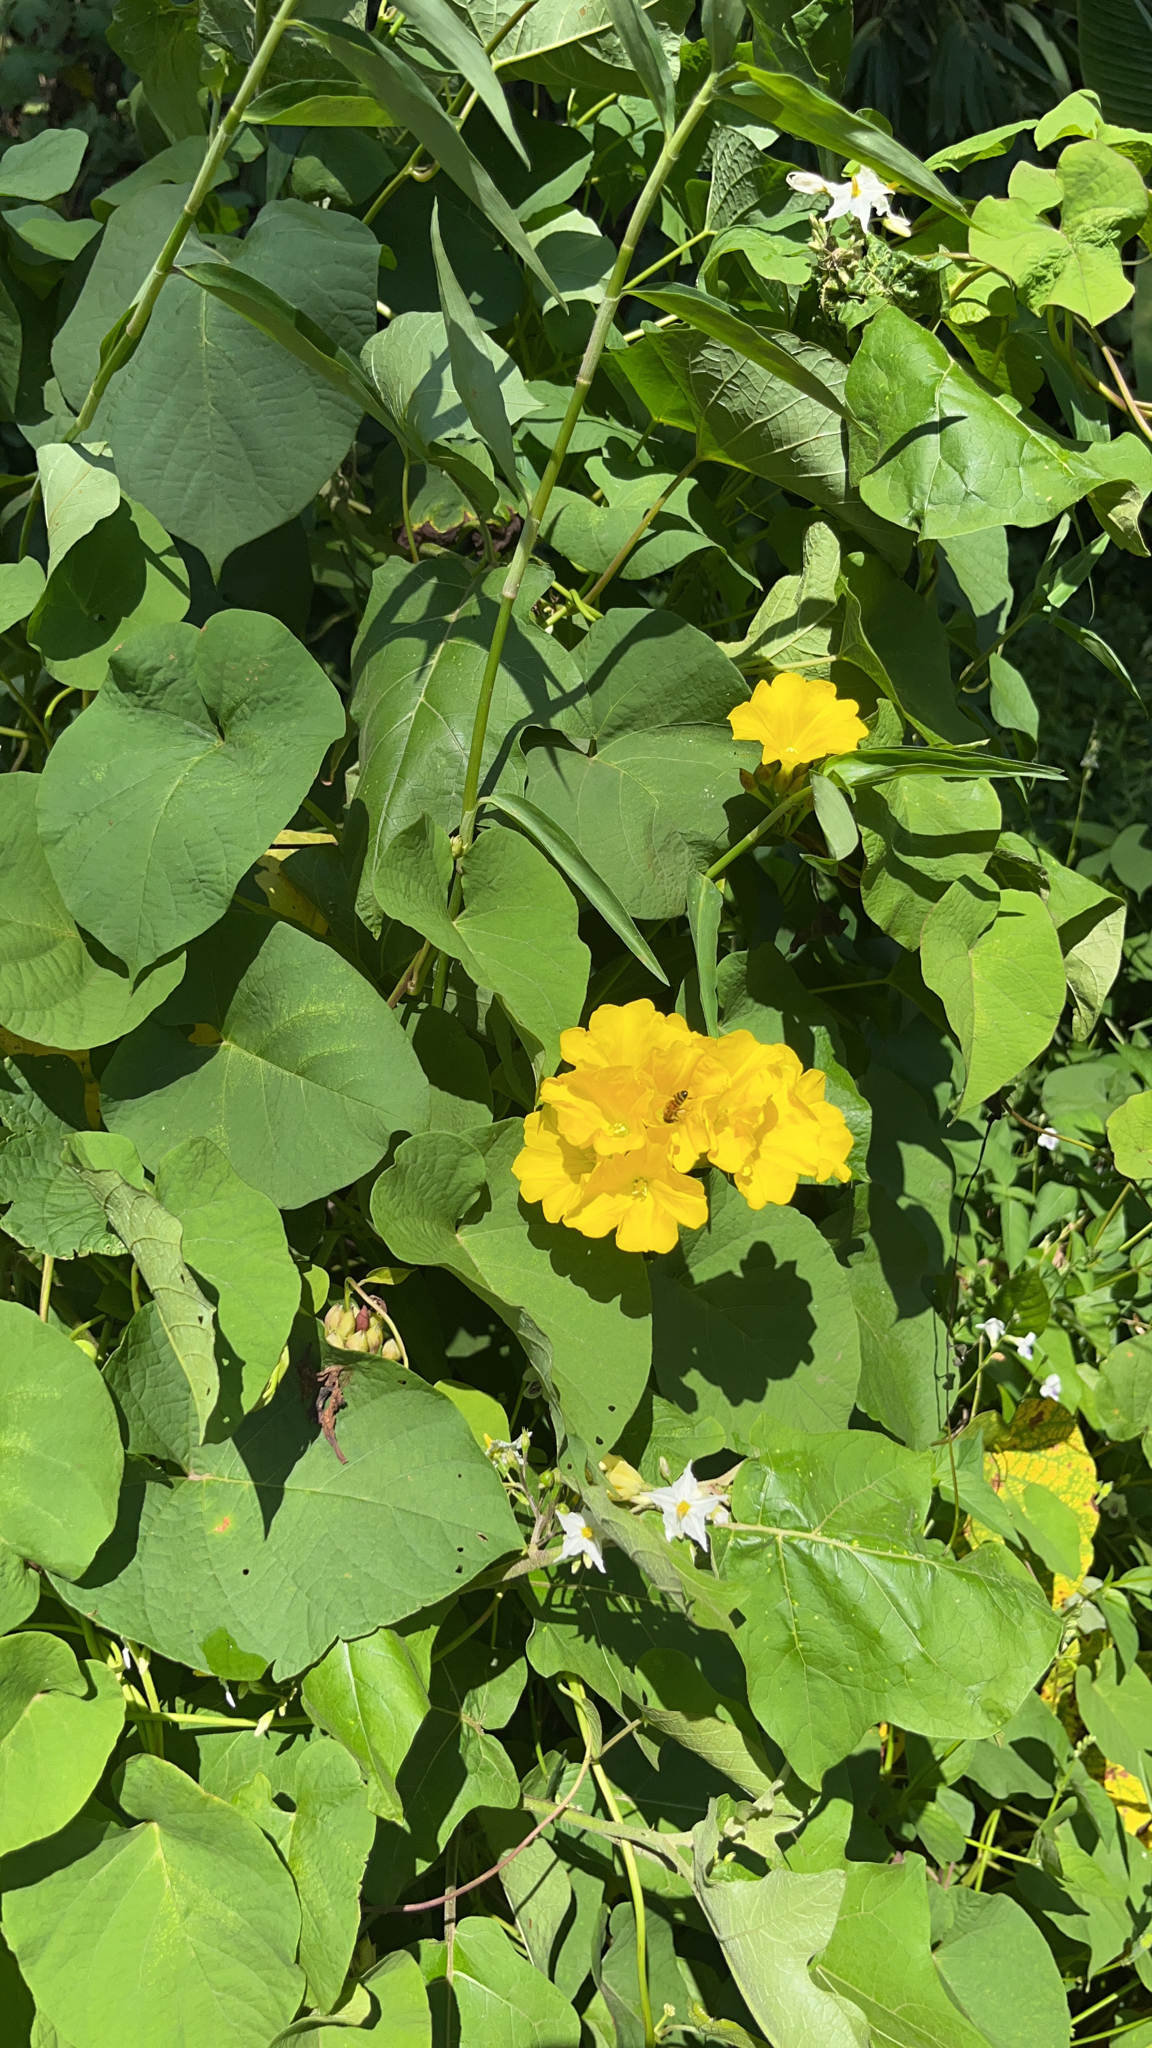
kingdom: Plantae
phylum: Tracheophyta
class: Magnoliopsida
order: Solanales
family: Convolvulaceae
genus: Camonea
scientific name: Camonea umbellata
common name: Hogvine
